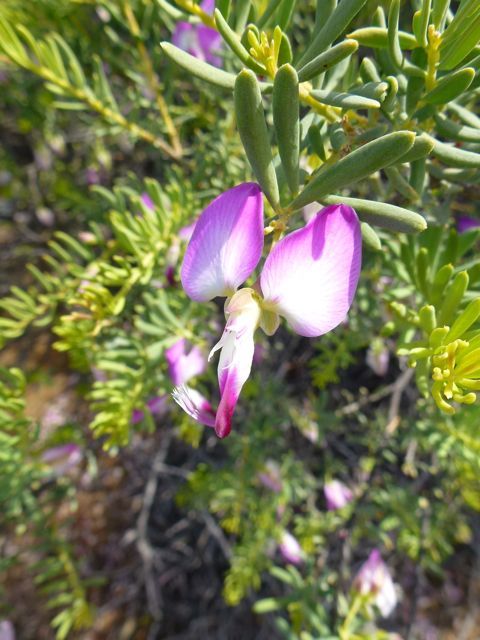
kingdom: Plantae
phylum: Tracheophyta
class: Magnoliopsida
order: Fabales
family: Polygalaceae
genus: Polygala
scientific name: Polygala myrtifolia
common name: Myrtle-leaf milkwort
